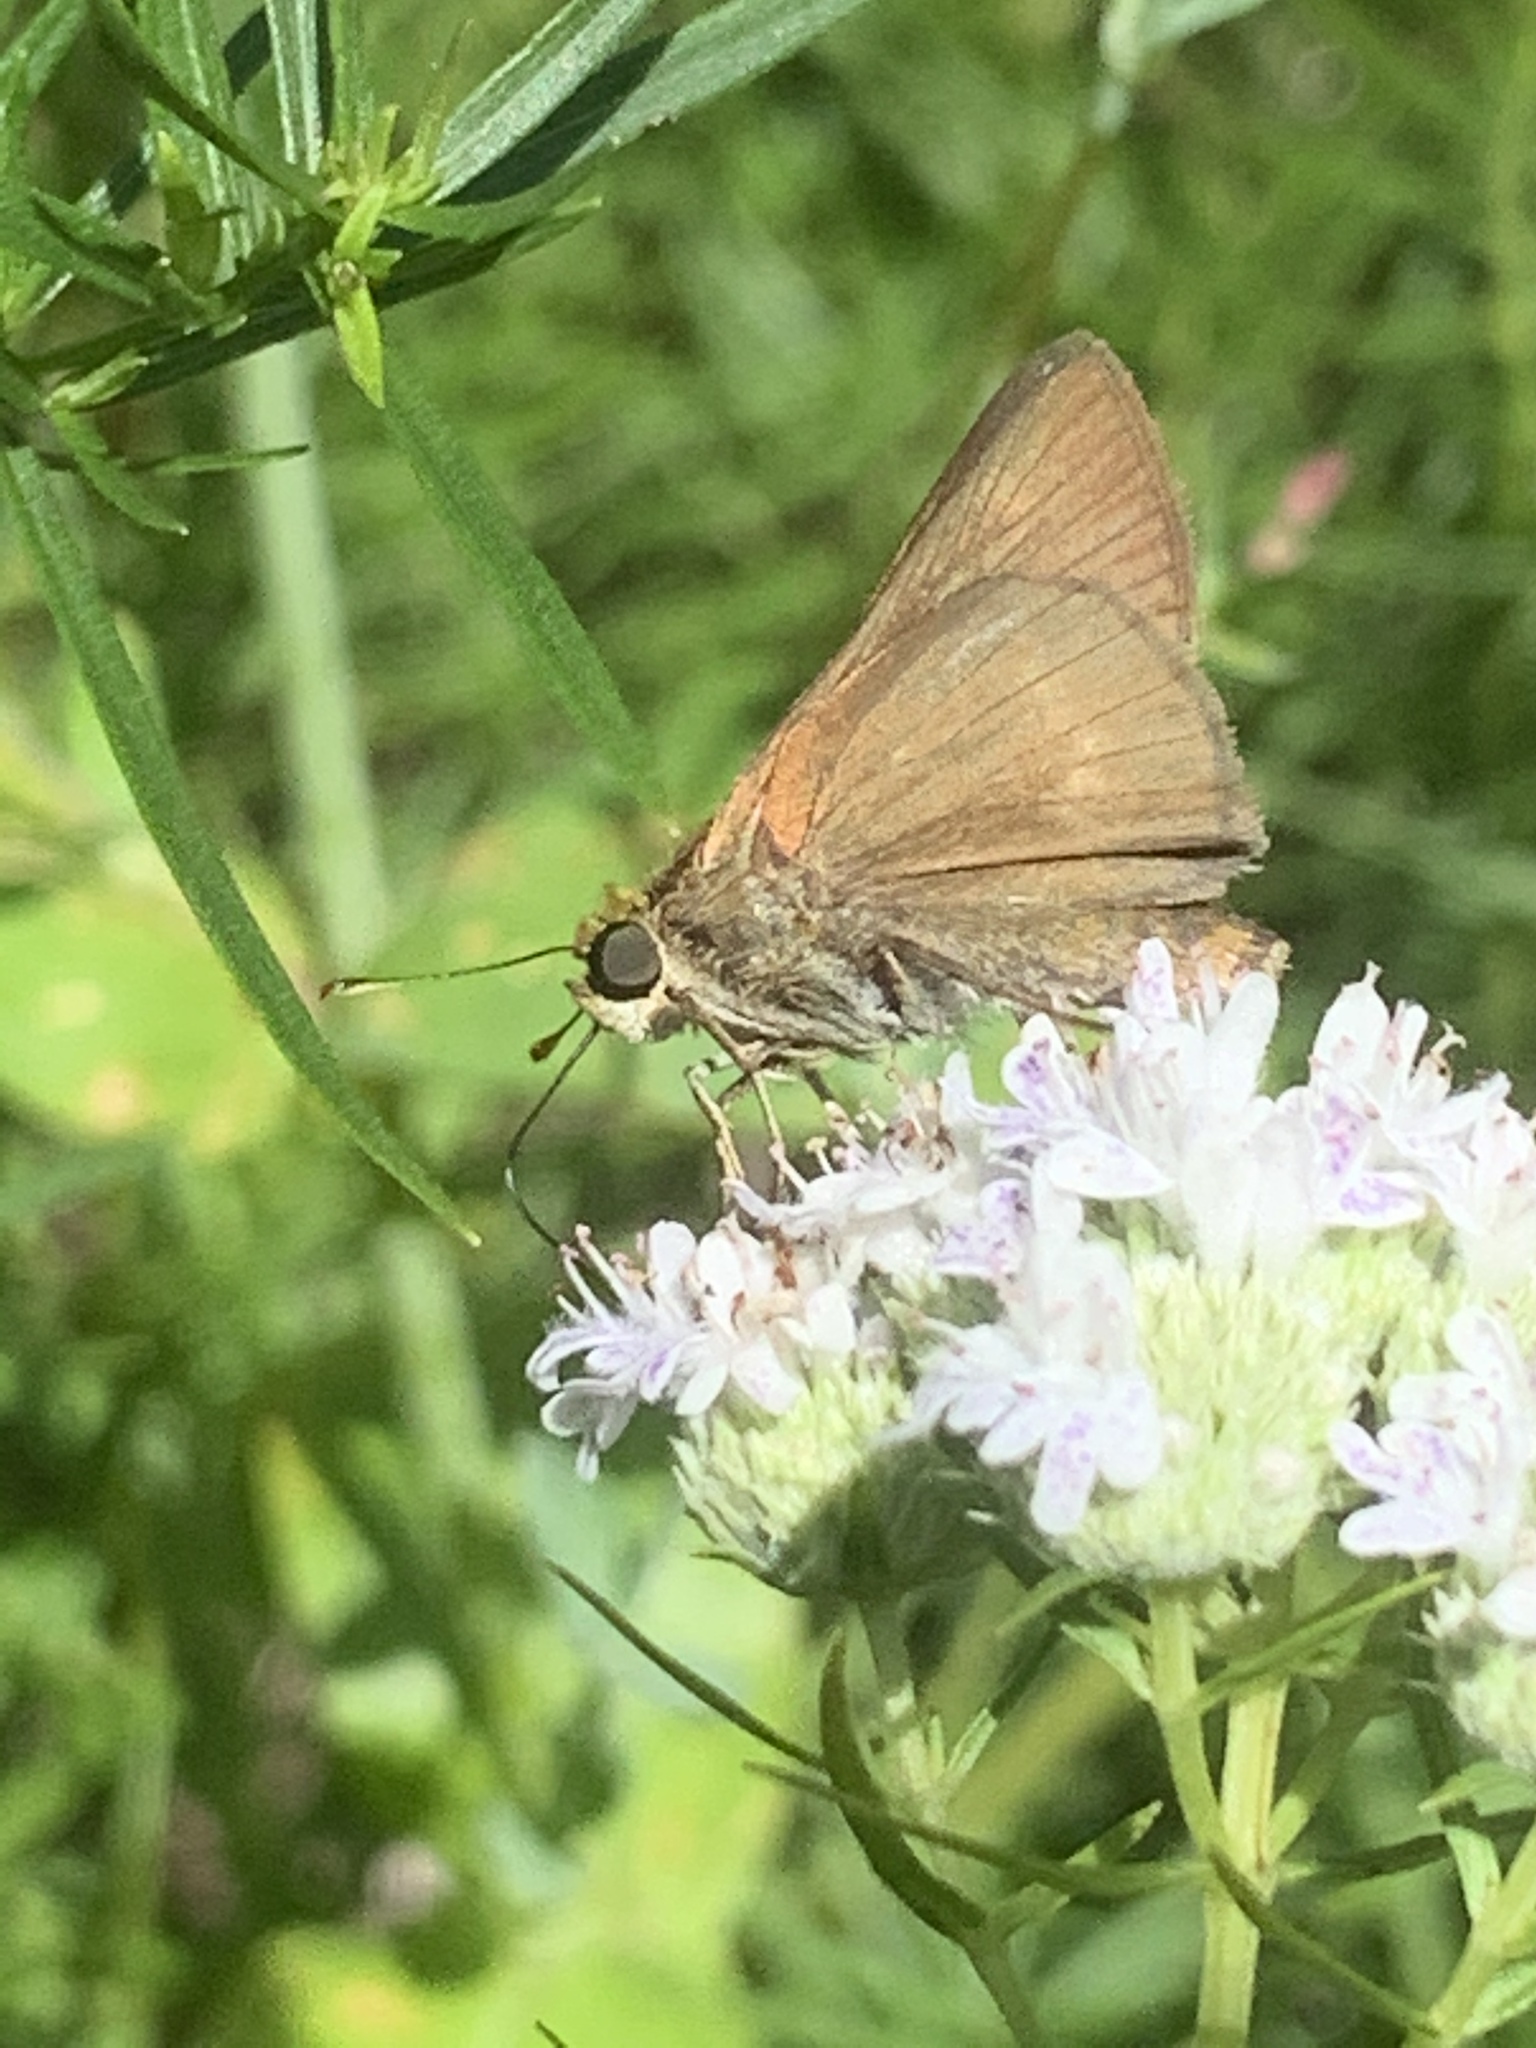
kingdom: Animalia
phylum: Arthropoda
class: Insecta
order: Lepidoptera
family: Hesperiidae
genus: Euphyes
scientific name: Euphyes vestris
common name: Dun skipper
